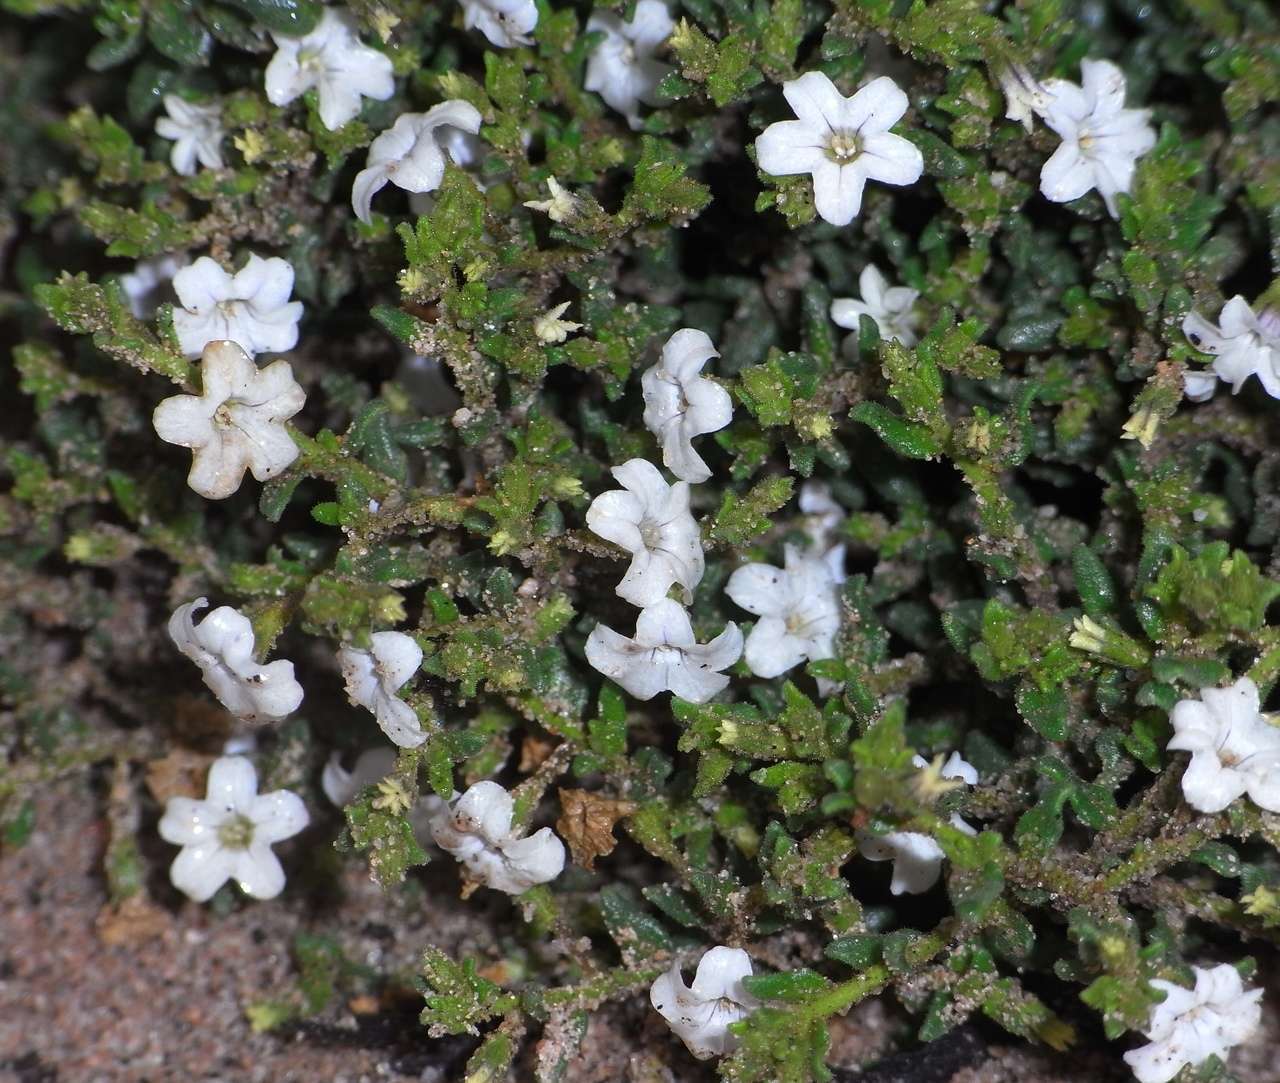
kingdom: Plantae
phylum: Tracheophyta
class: Magnoliopsida
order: Solanales
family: Solanaceae
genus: Cyphanthera
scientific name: Cyphanthera myosotidea
